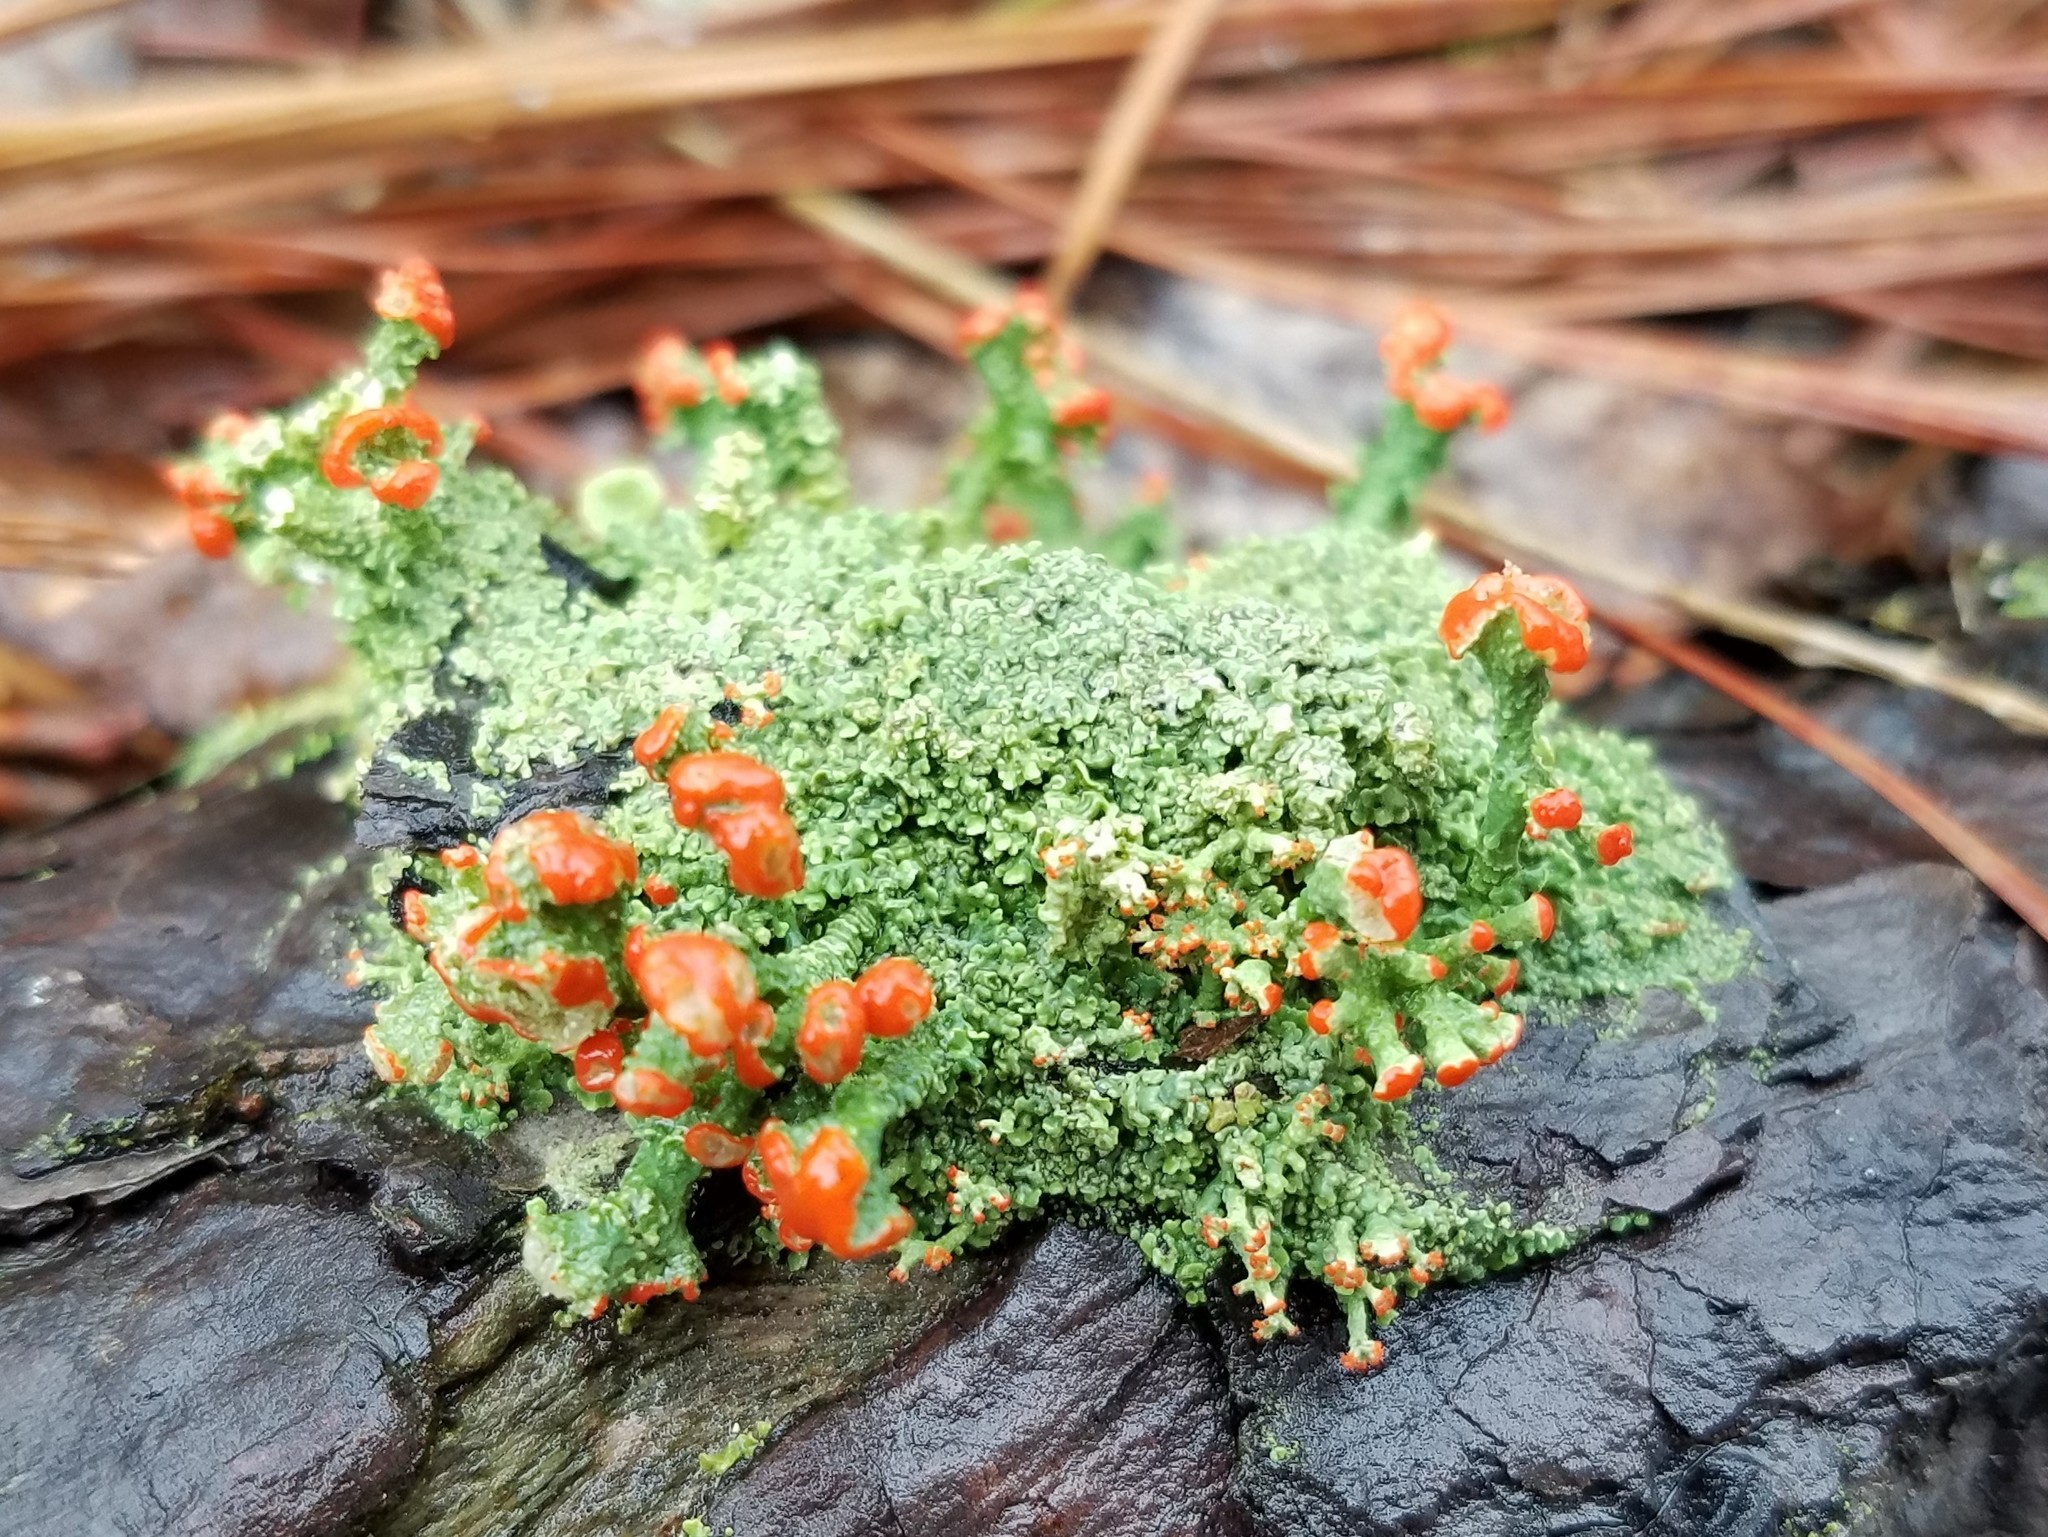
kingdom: Fungi
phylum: Ascomycota
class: Lecanoromycetes
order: Lecanorales
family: Cladoniaceae
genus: Cladonia
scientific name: Cladonia cristatella
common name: British soldier lichen
